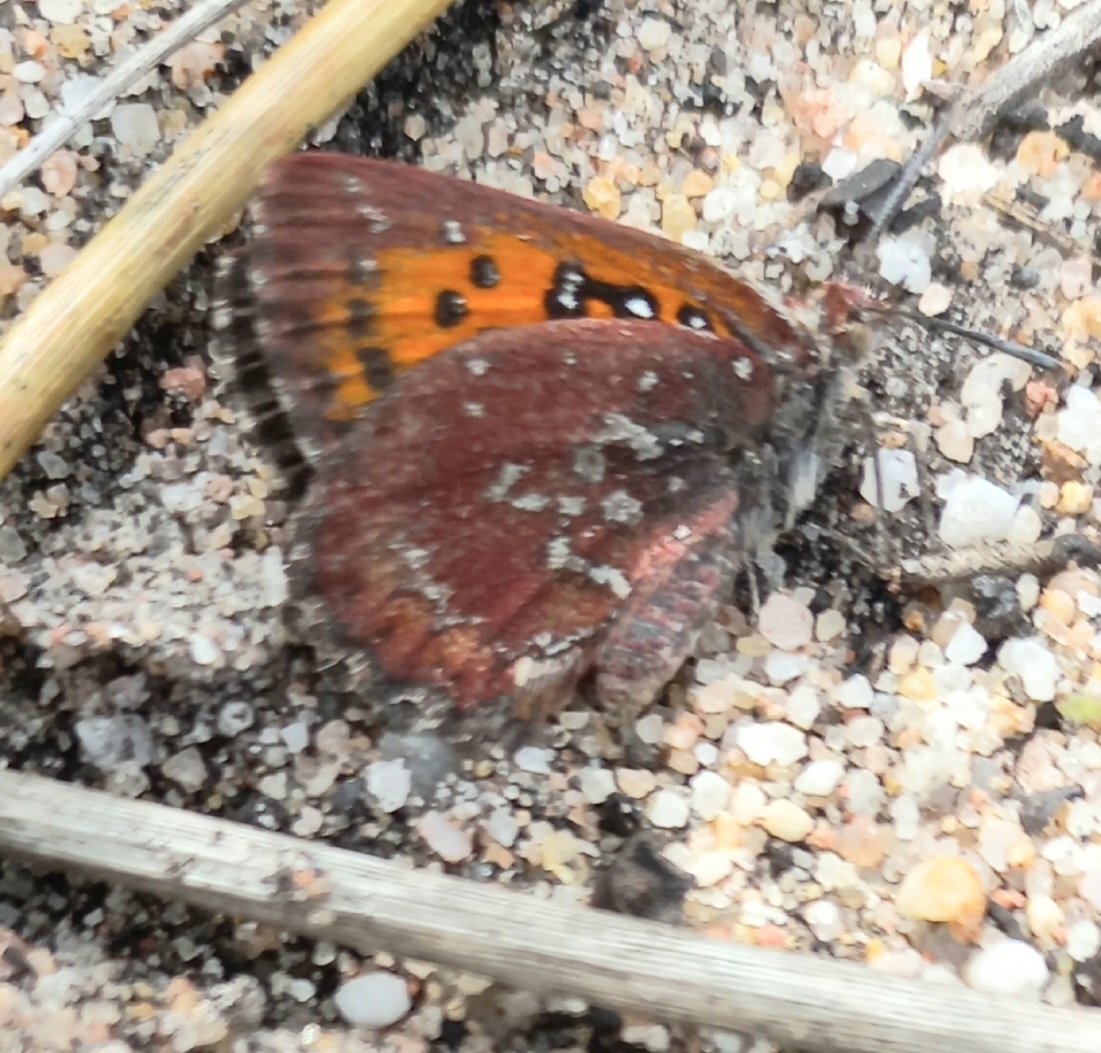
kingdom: Animalia
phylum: Arthropoda
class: Insecta
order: Lepidoptera
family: Lycaenidae
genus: Aloeides
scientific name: Aloeides thyra
